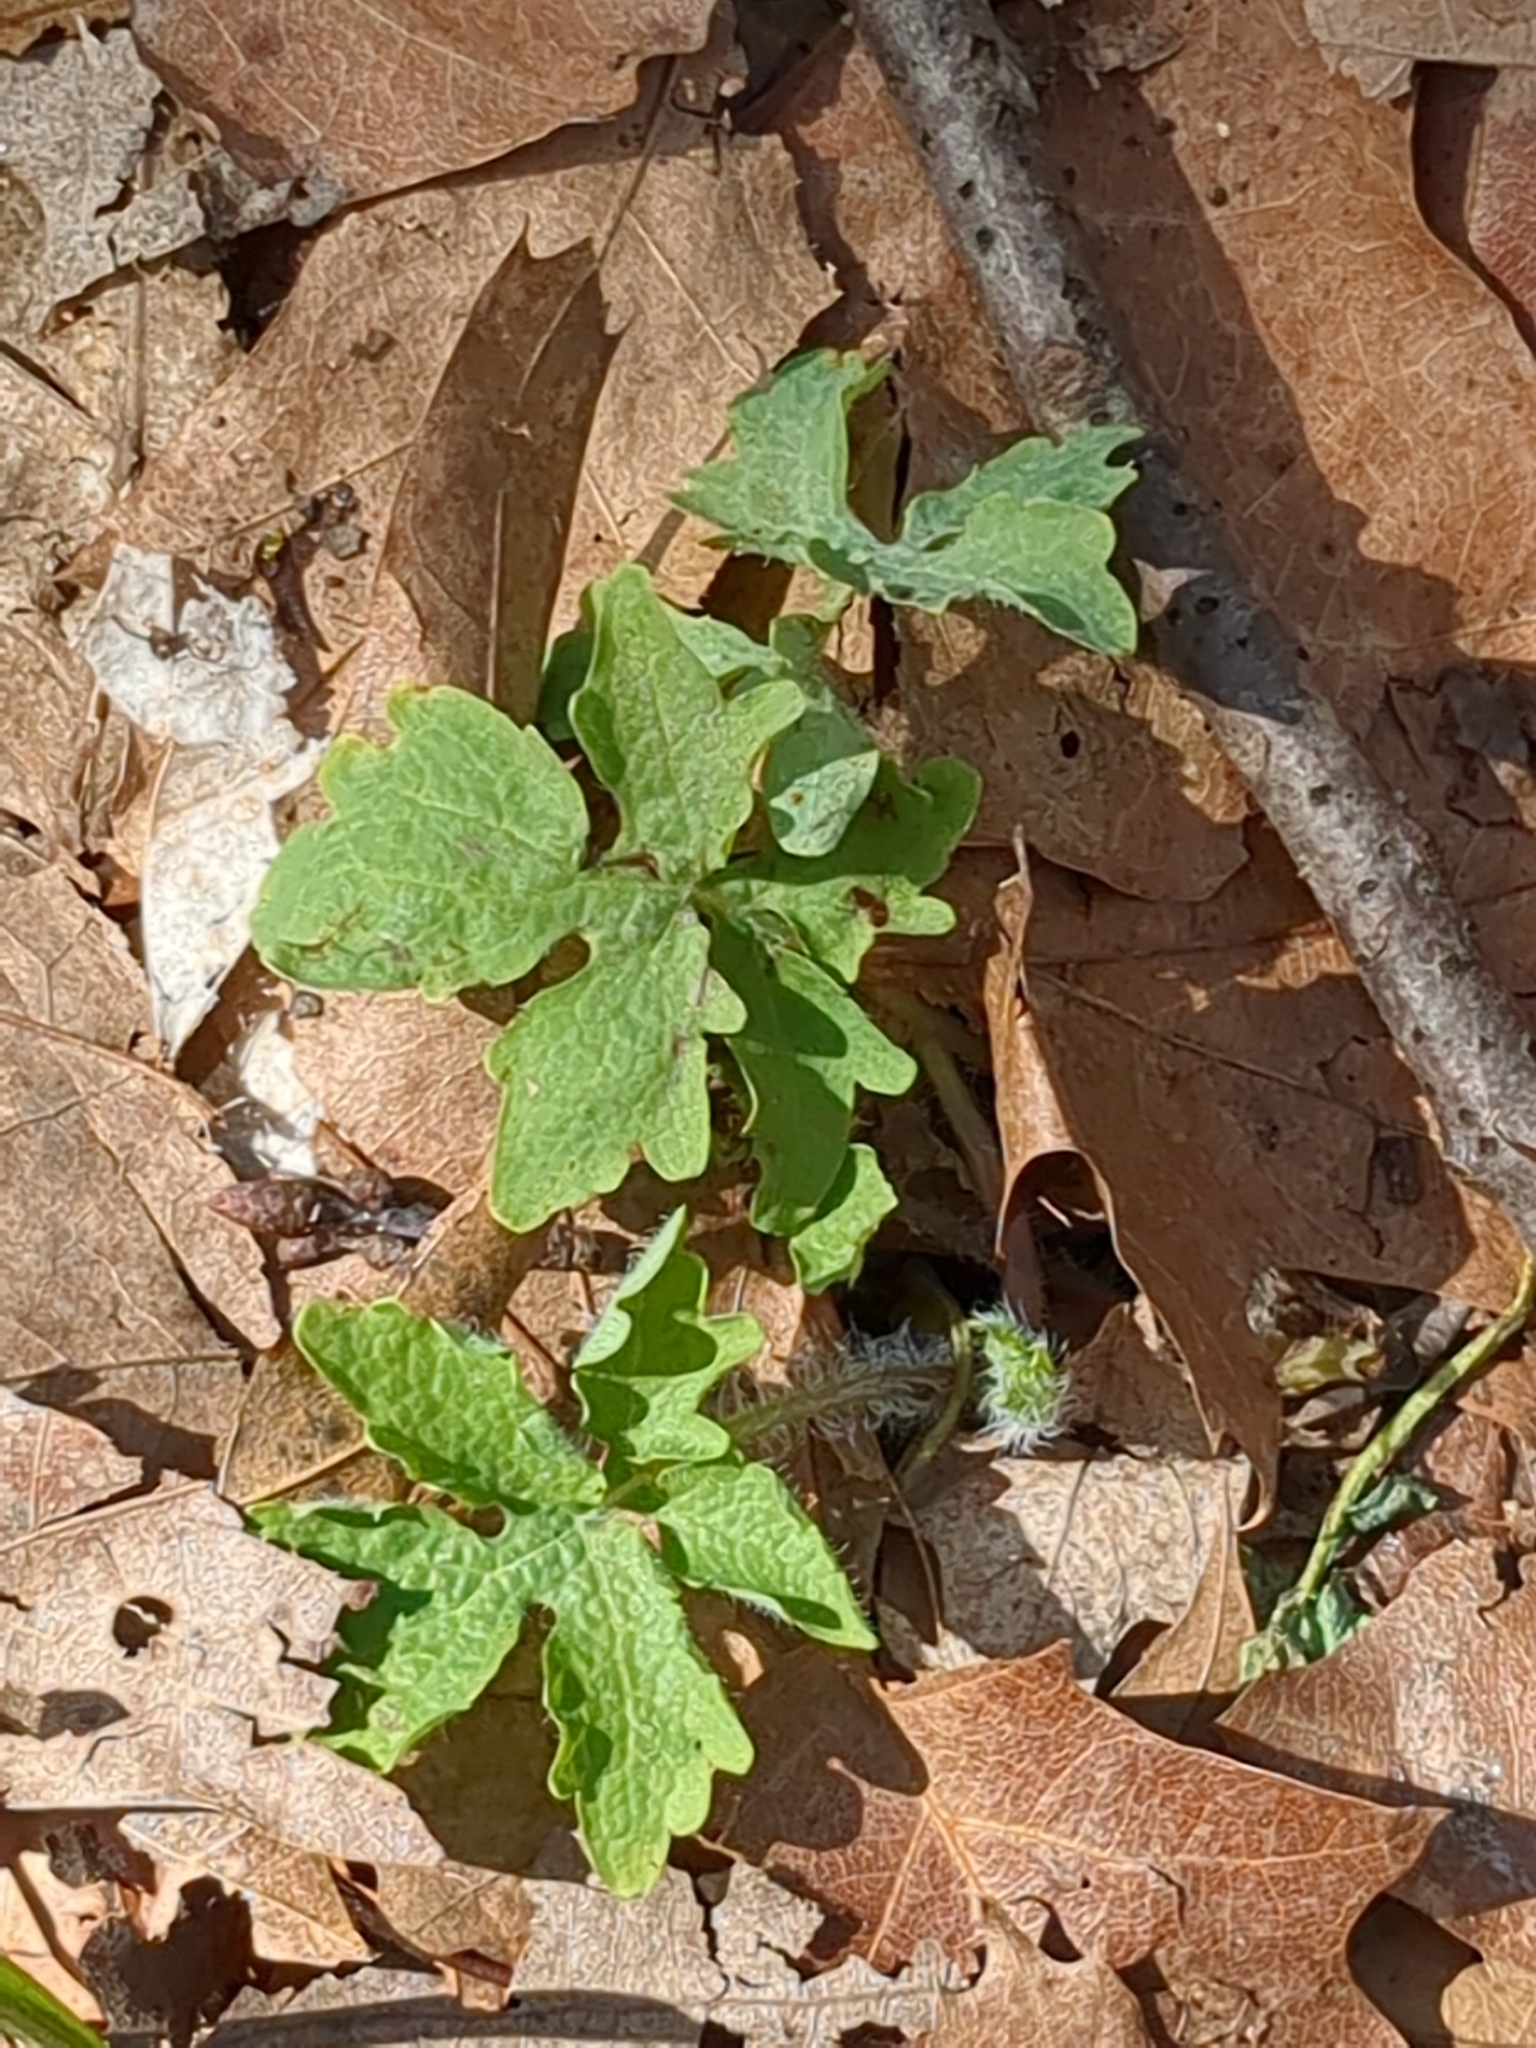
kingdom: Plantae
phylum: Tracheophyta
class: Magnoliopsida
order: Ranunculales
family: Papaveraceae
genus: Stylophorum
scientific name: Stylophorum diphyllum
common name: Celandine poppy
